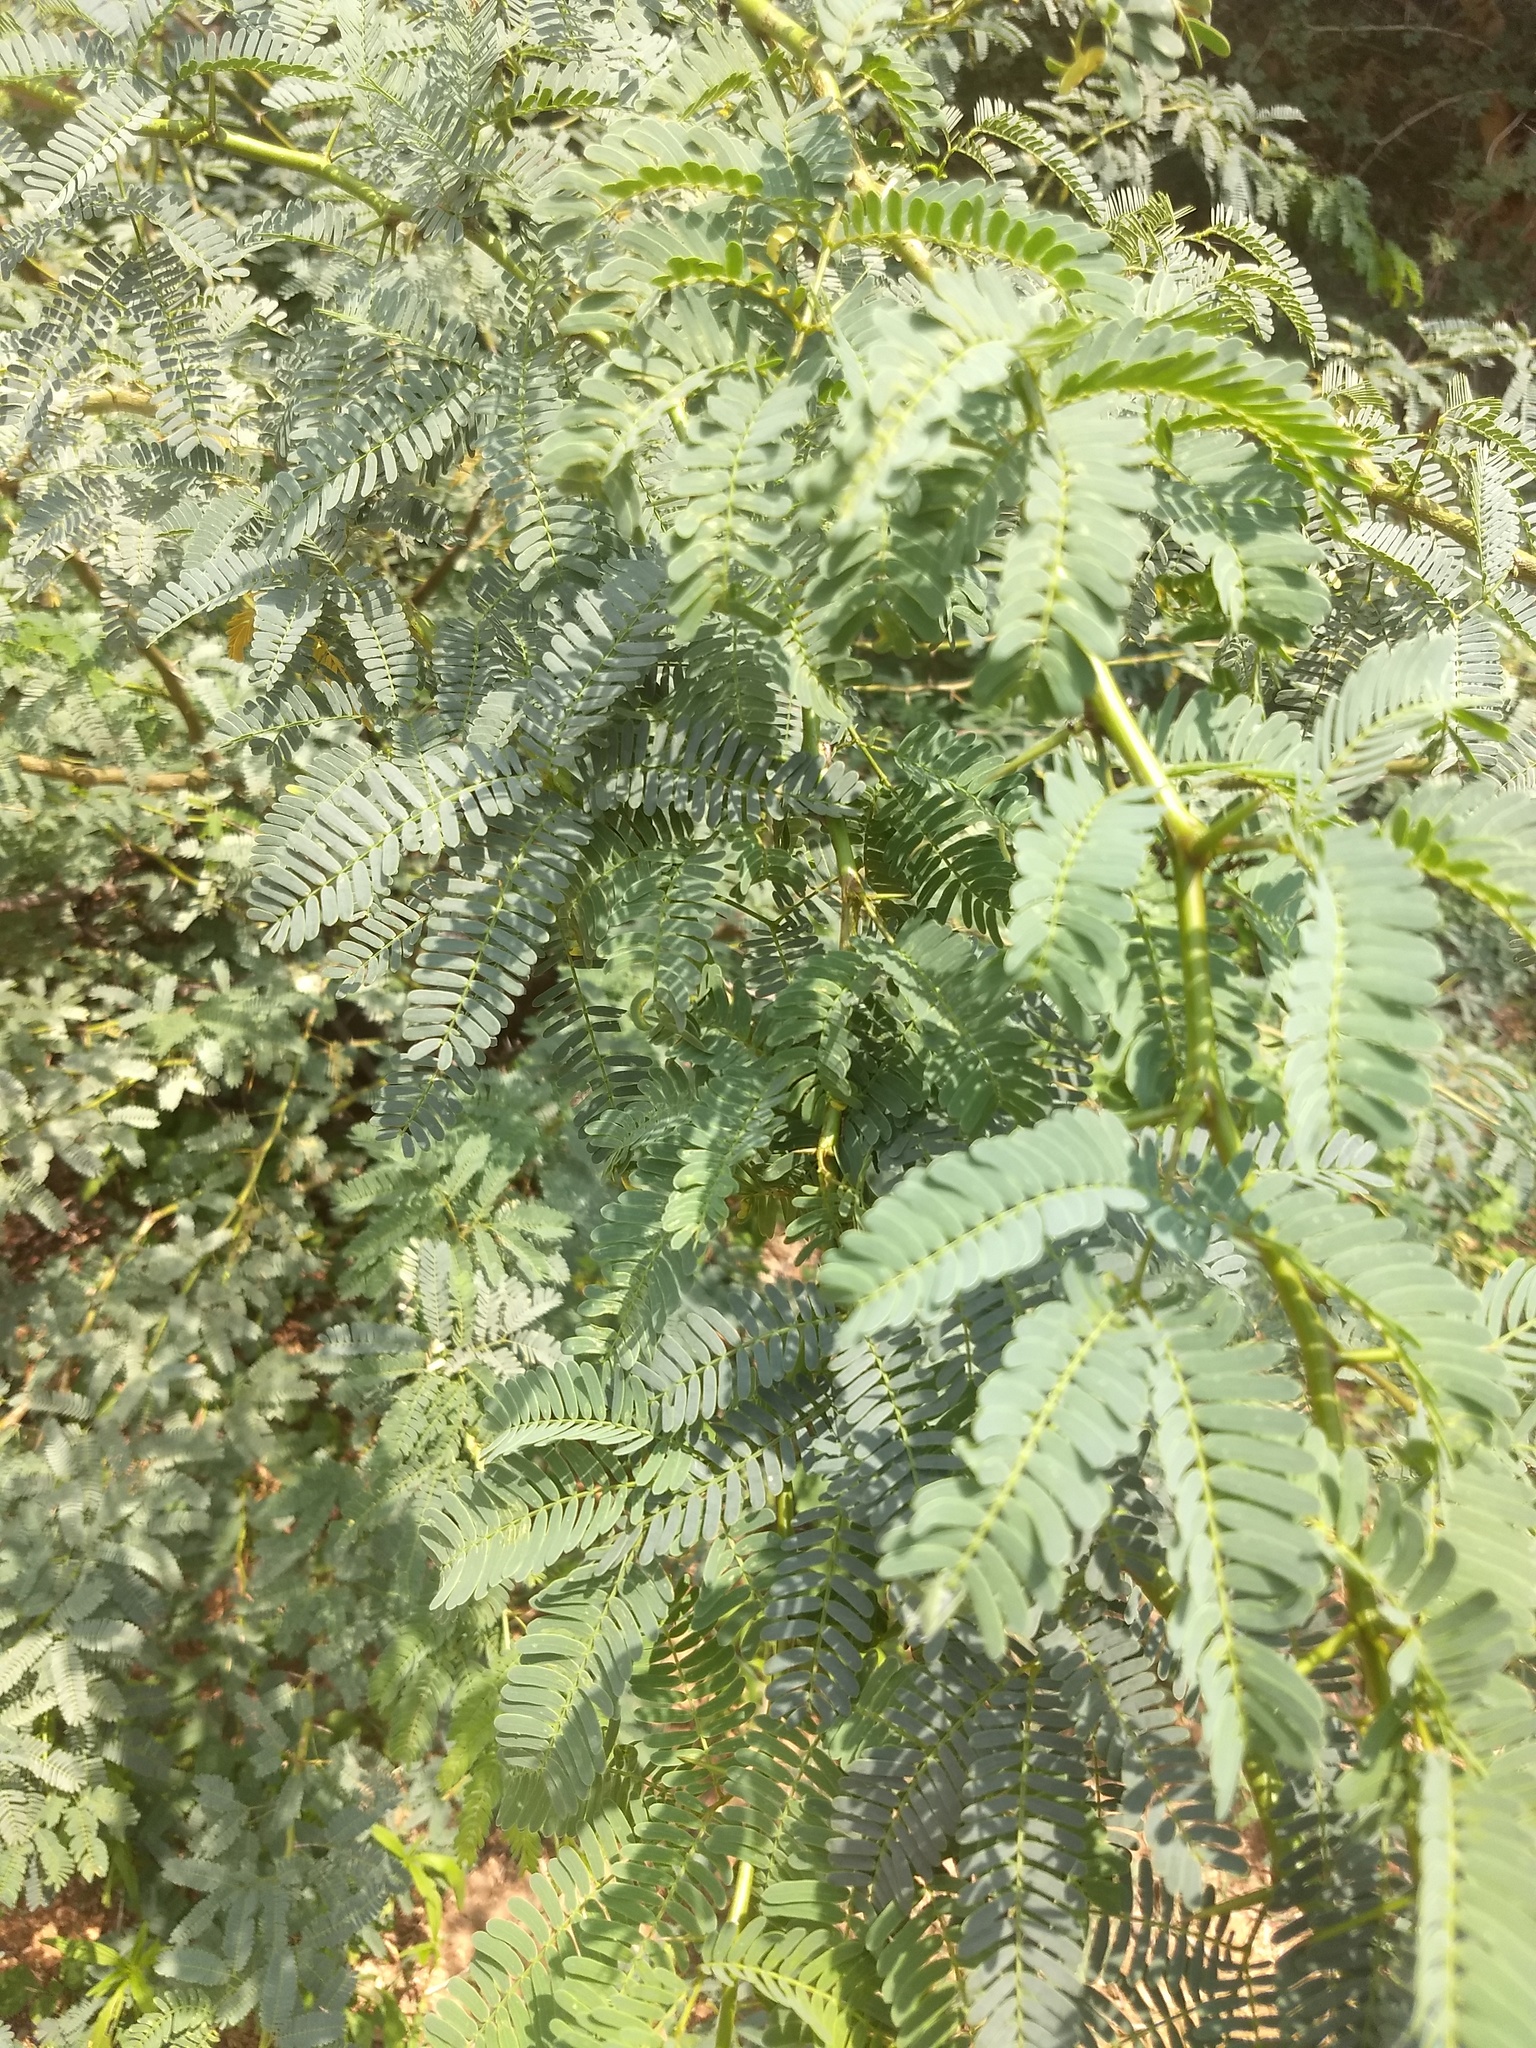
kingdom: Plantae
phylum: Tracheophyta
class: Magnoliopsida
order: Fabales
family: Fabaceae
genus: Prosopis
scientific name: Prosopis juliflora
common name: Mesquite
